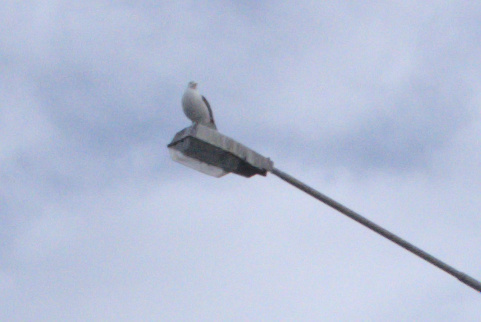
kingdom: Animalia
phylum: Chordata
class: Aves
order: Charadriiformes
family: Laridae
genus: Larus
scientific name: Larus dominicanus
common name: Kelp gull
